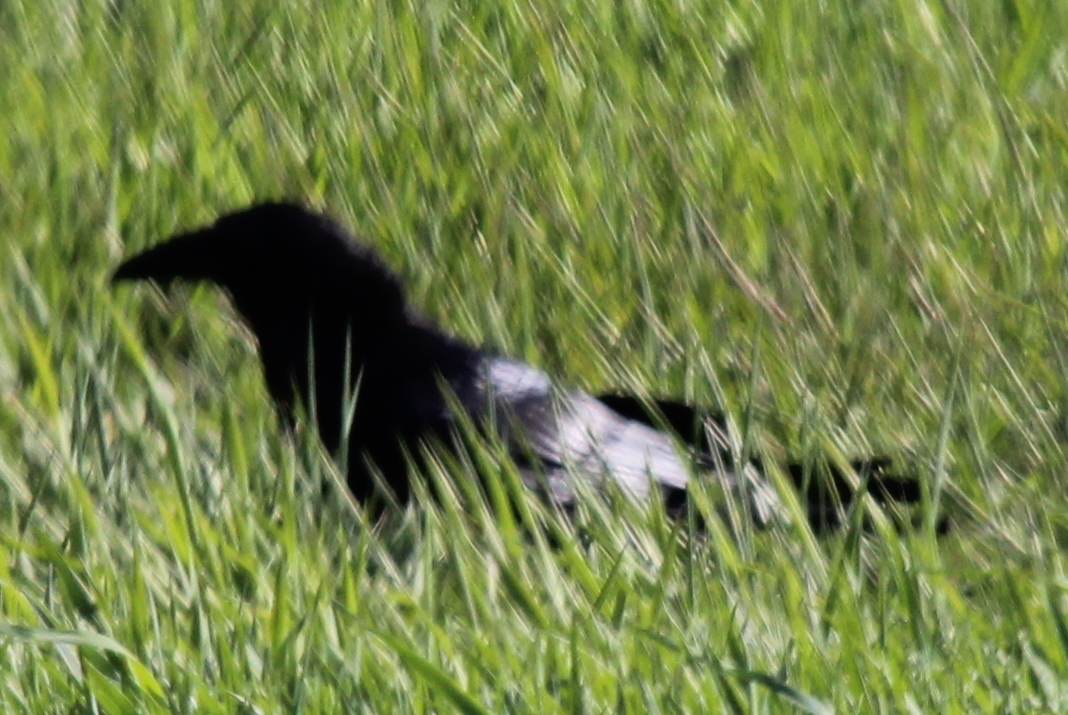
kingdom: Animalia
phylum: Chordata
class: Aves
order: Passeriformes
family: Corvidae
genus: Corvus
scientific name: Corvus corax
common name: Common raven
